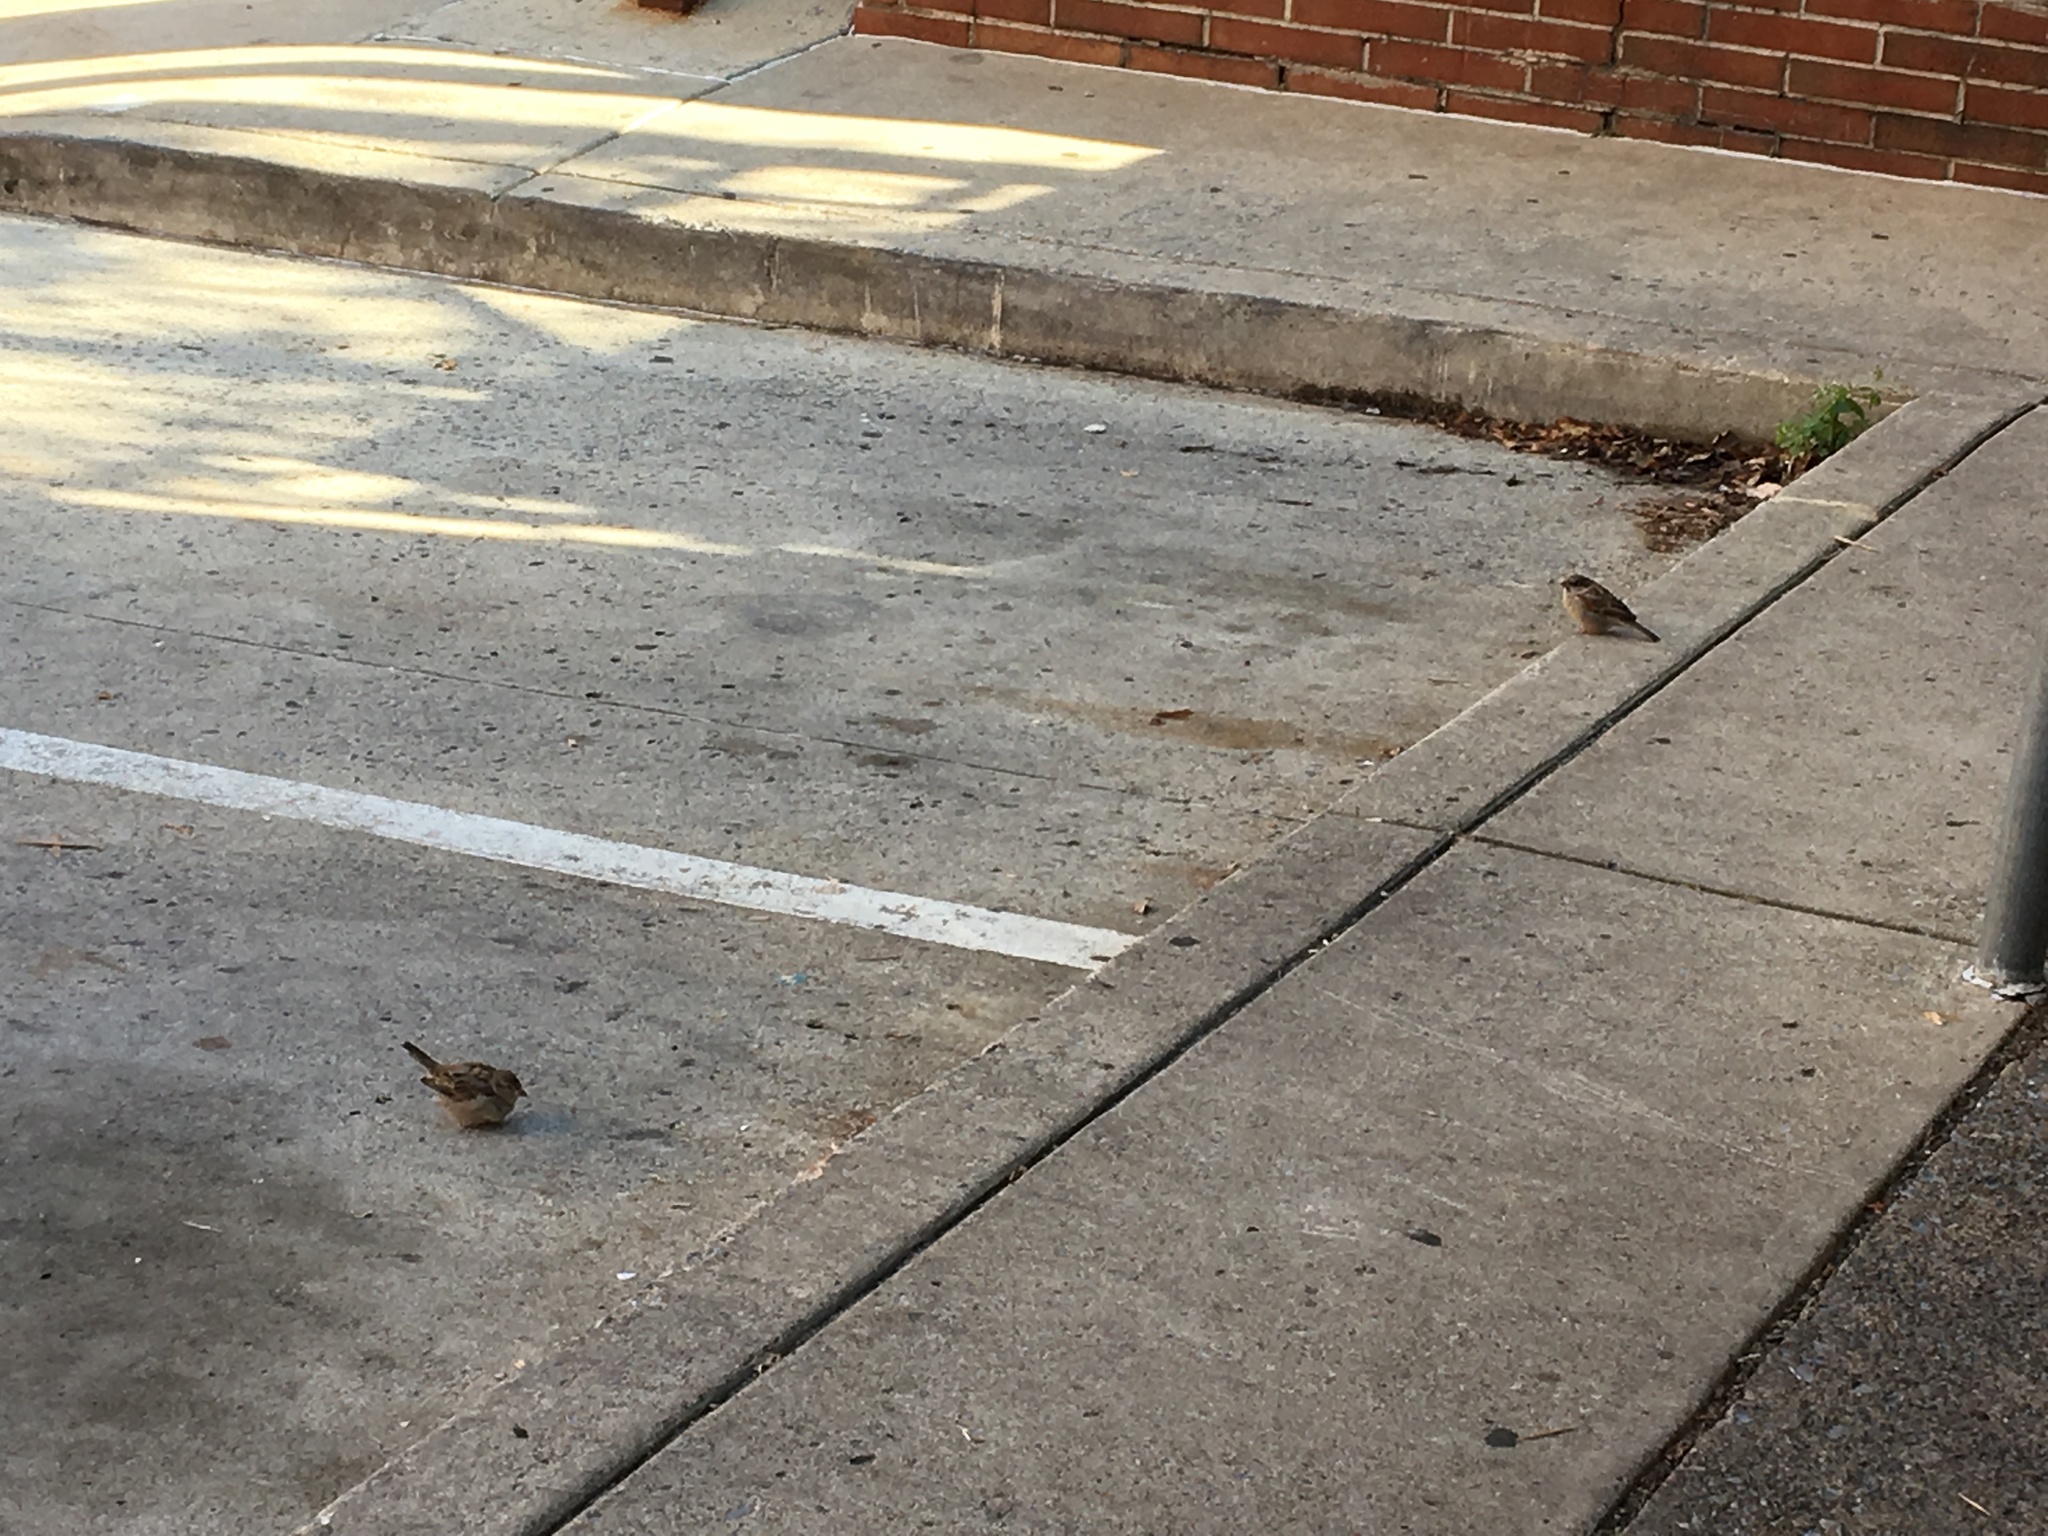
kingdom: Animalia
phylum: Chordata
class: Aves
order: Passeriformes
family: Passeridae
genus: Passer
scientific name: Passer domesticus
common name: House sparrow
